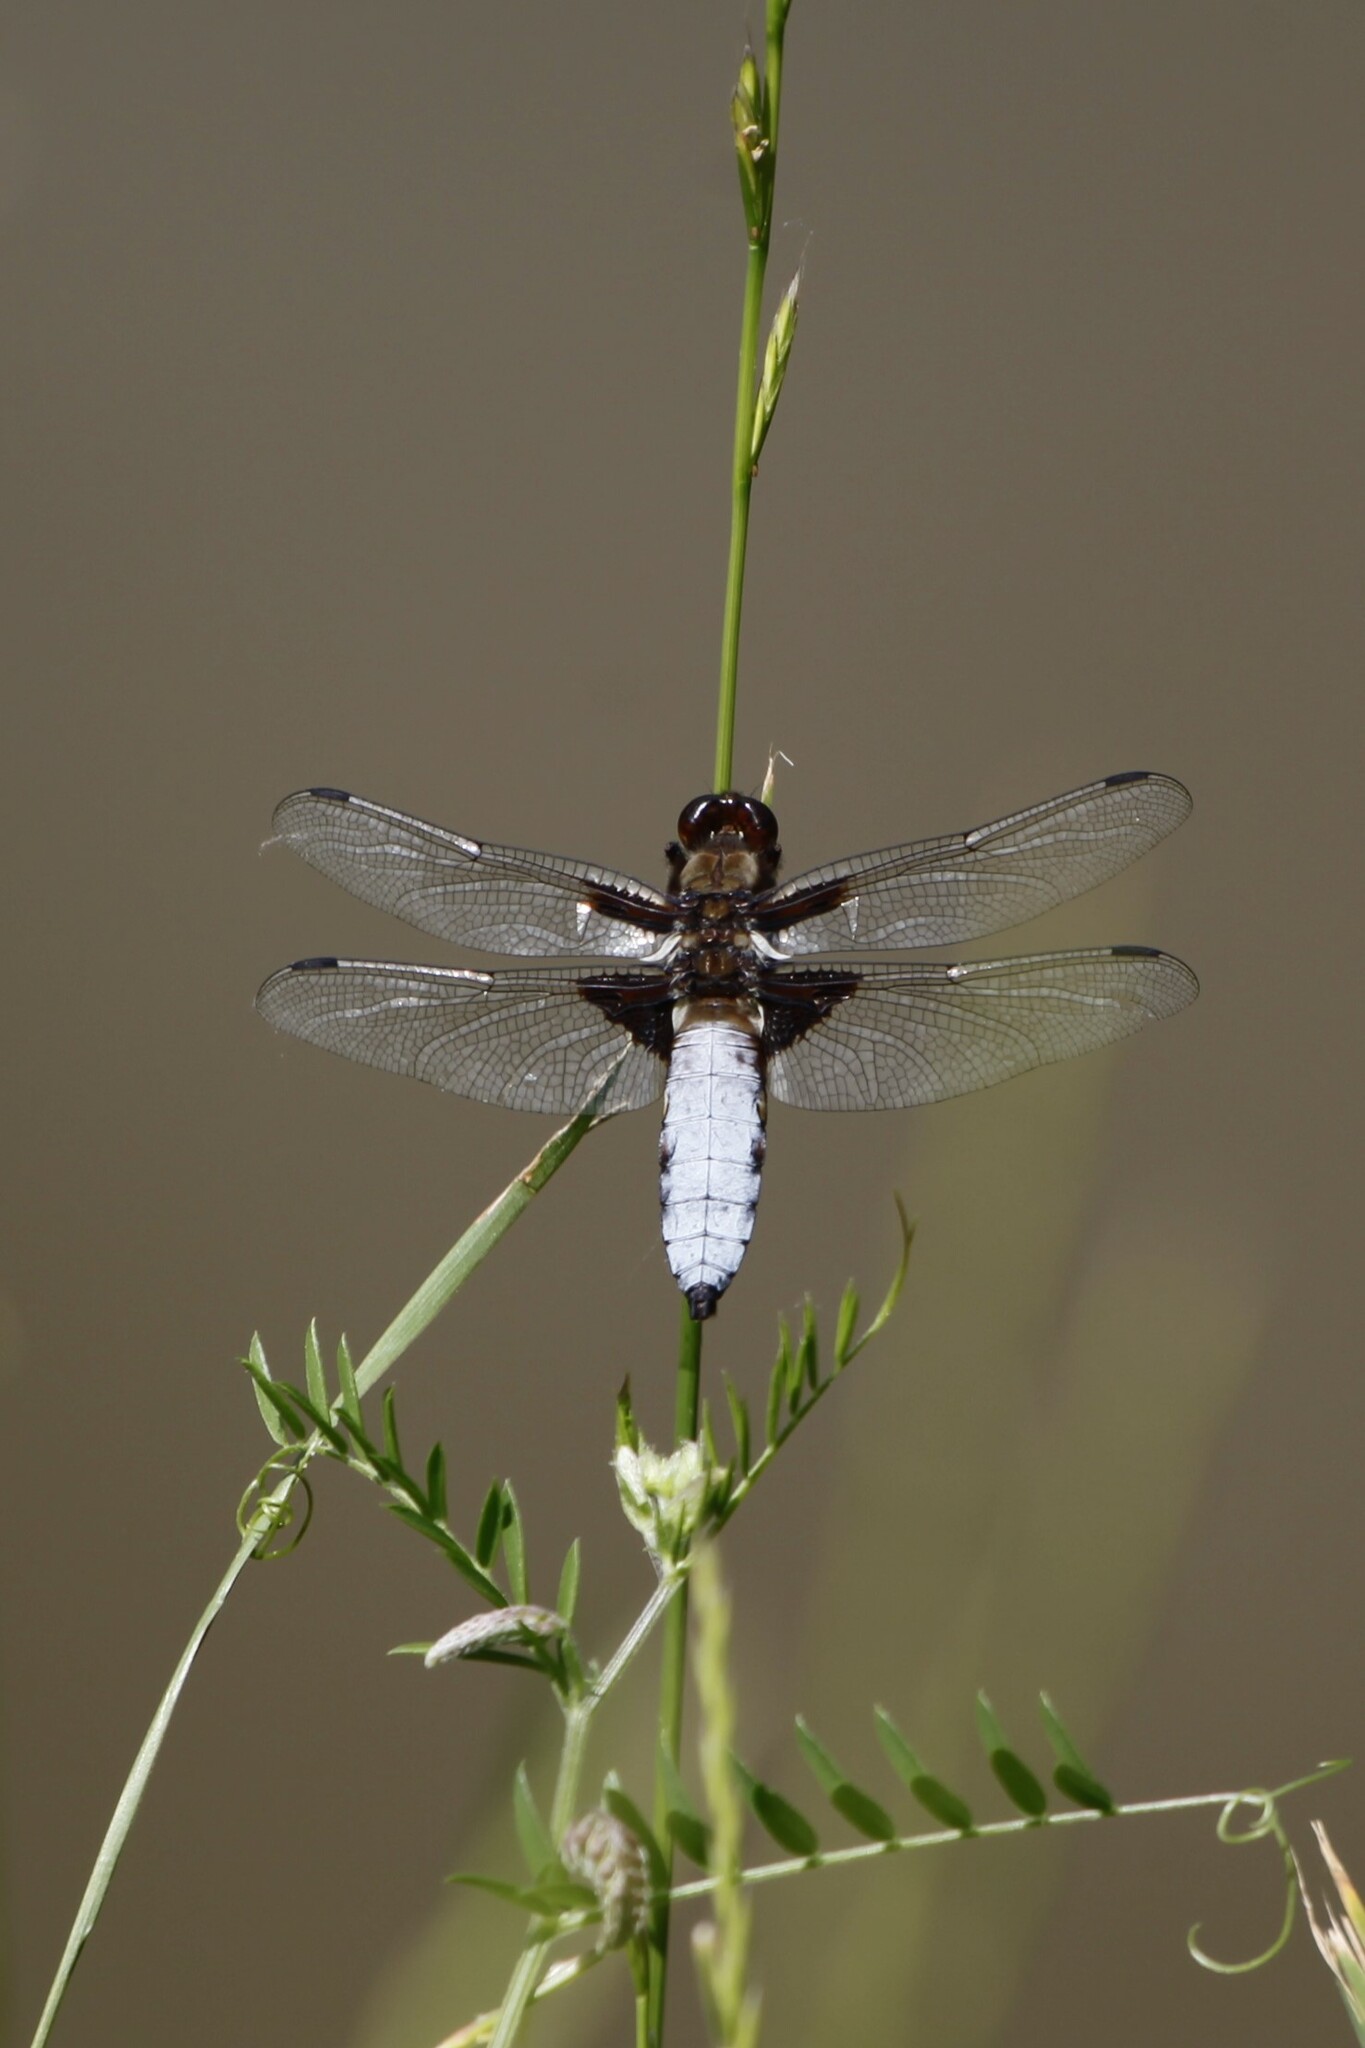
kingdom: Animalia
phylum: Arthropoda
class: Insecta
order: Odonata
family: Libellulidae
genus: Libellula
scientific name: Libellula depressa
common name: Broad-bodied chaser
